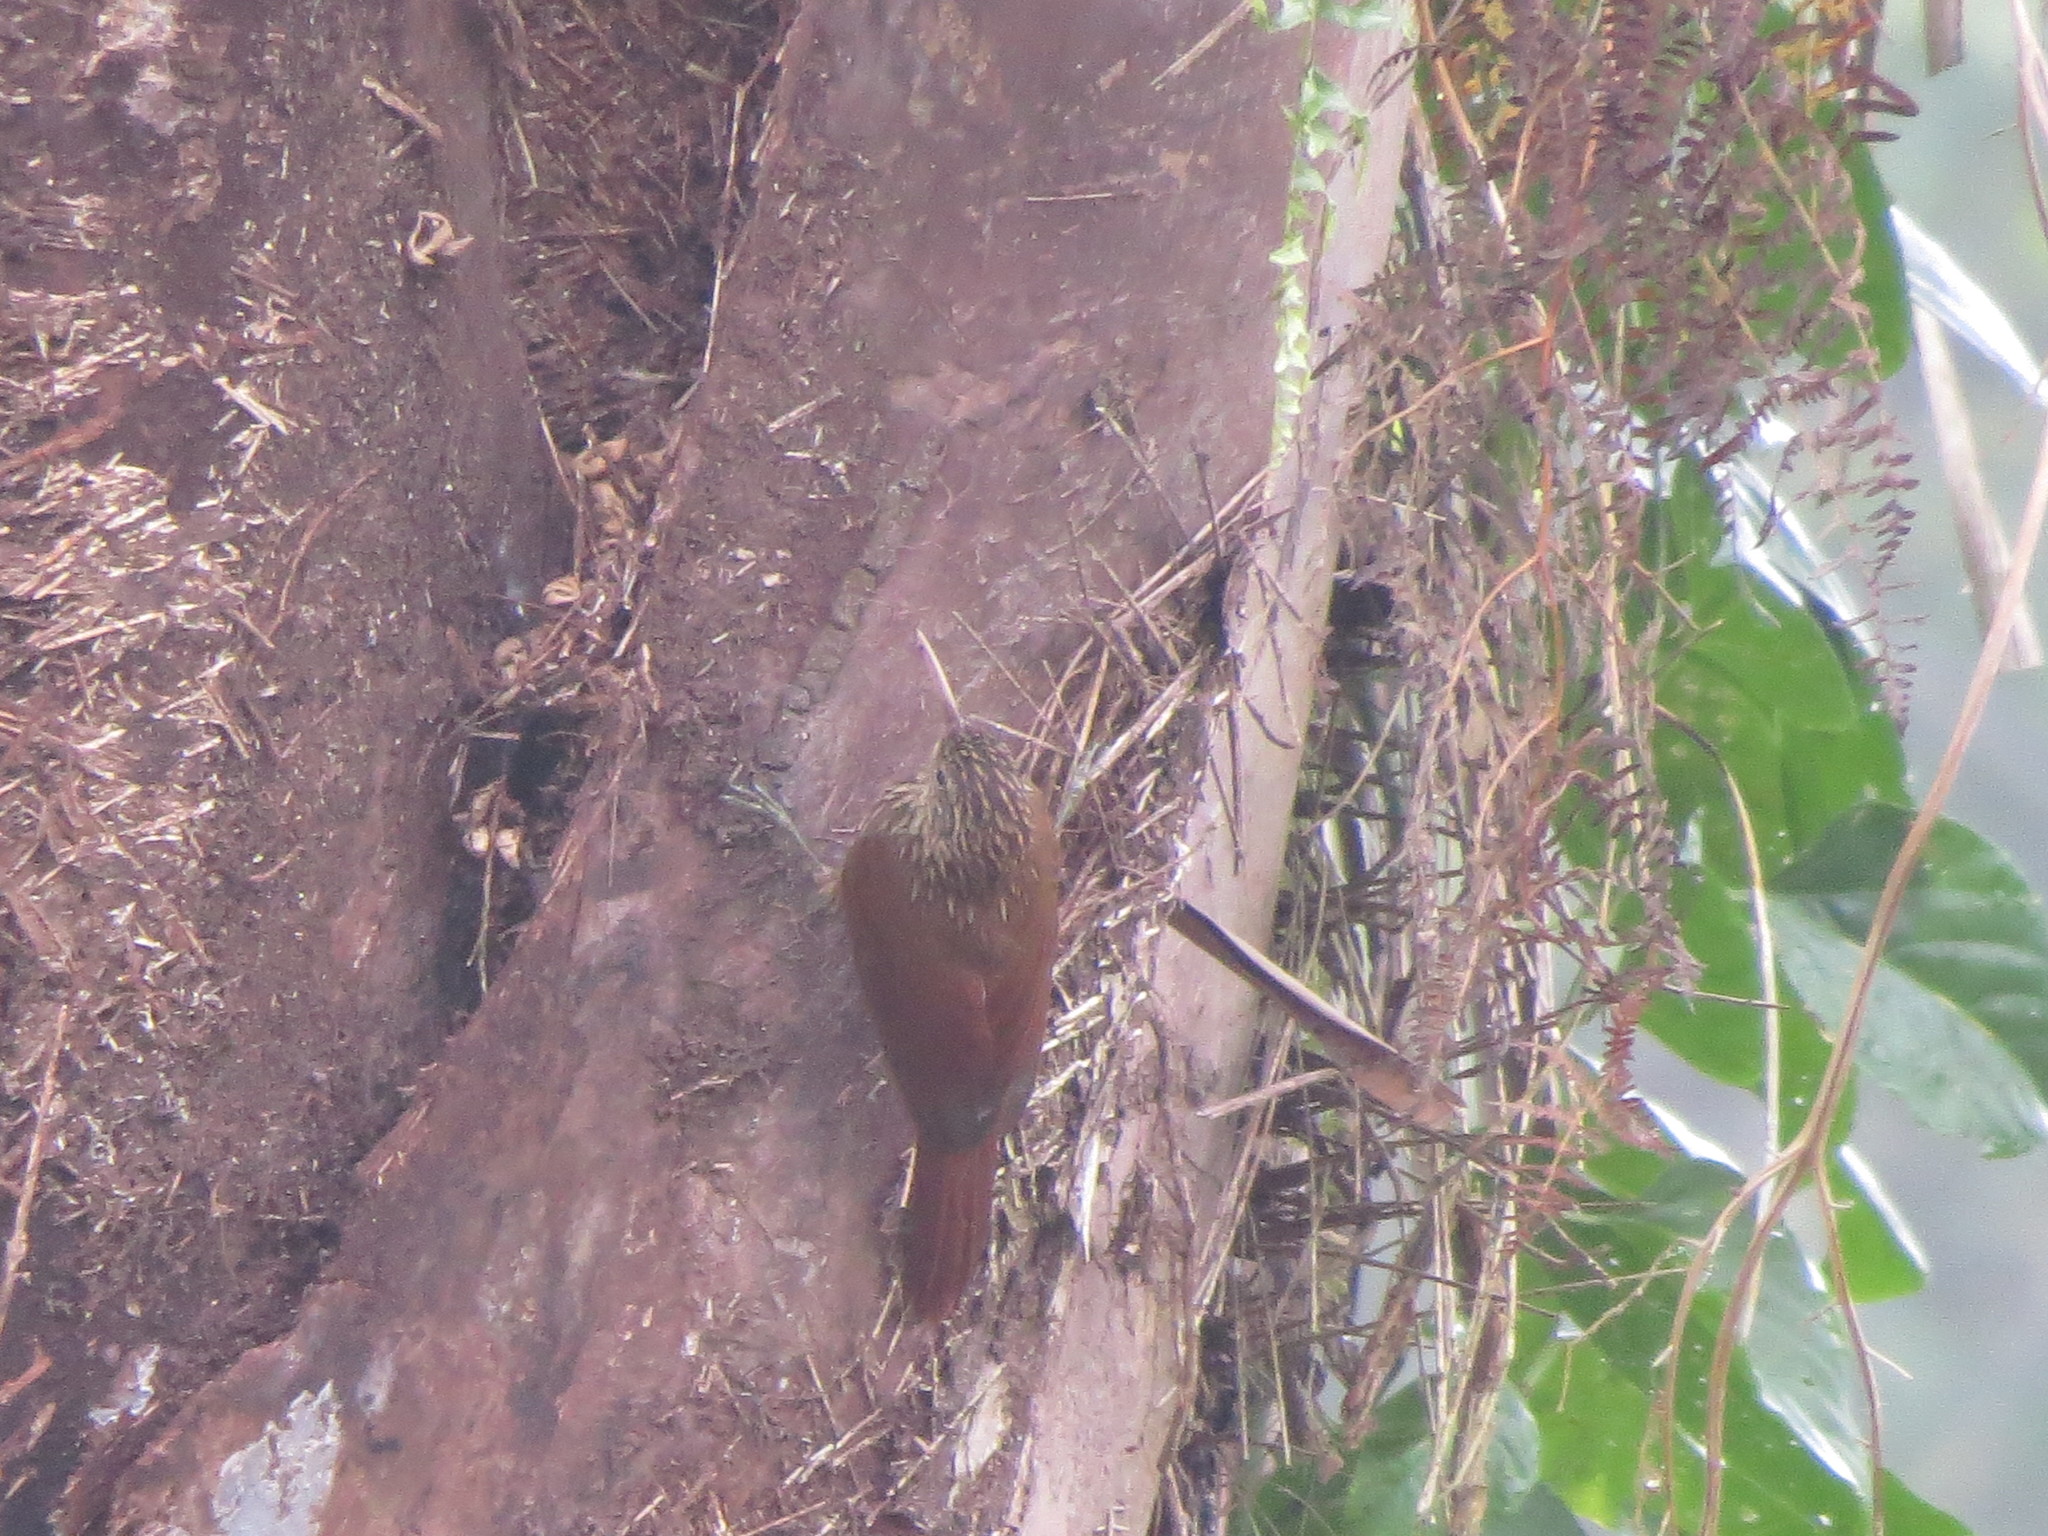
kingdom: Animalia
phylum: Chordata
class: Aves
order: Passeriformes
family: Furnariidae
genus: Lepidocolaptes
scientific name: Lepidocolaptes souleyetii
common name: Streak-headed woodcreeper
